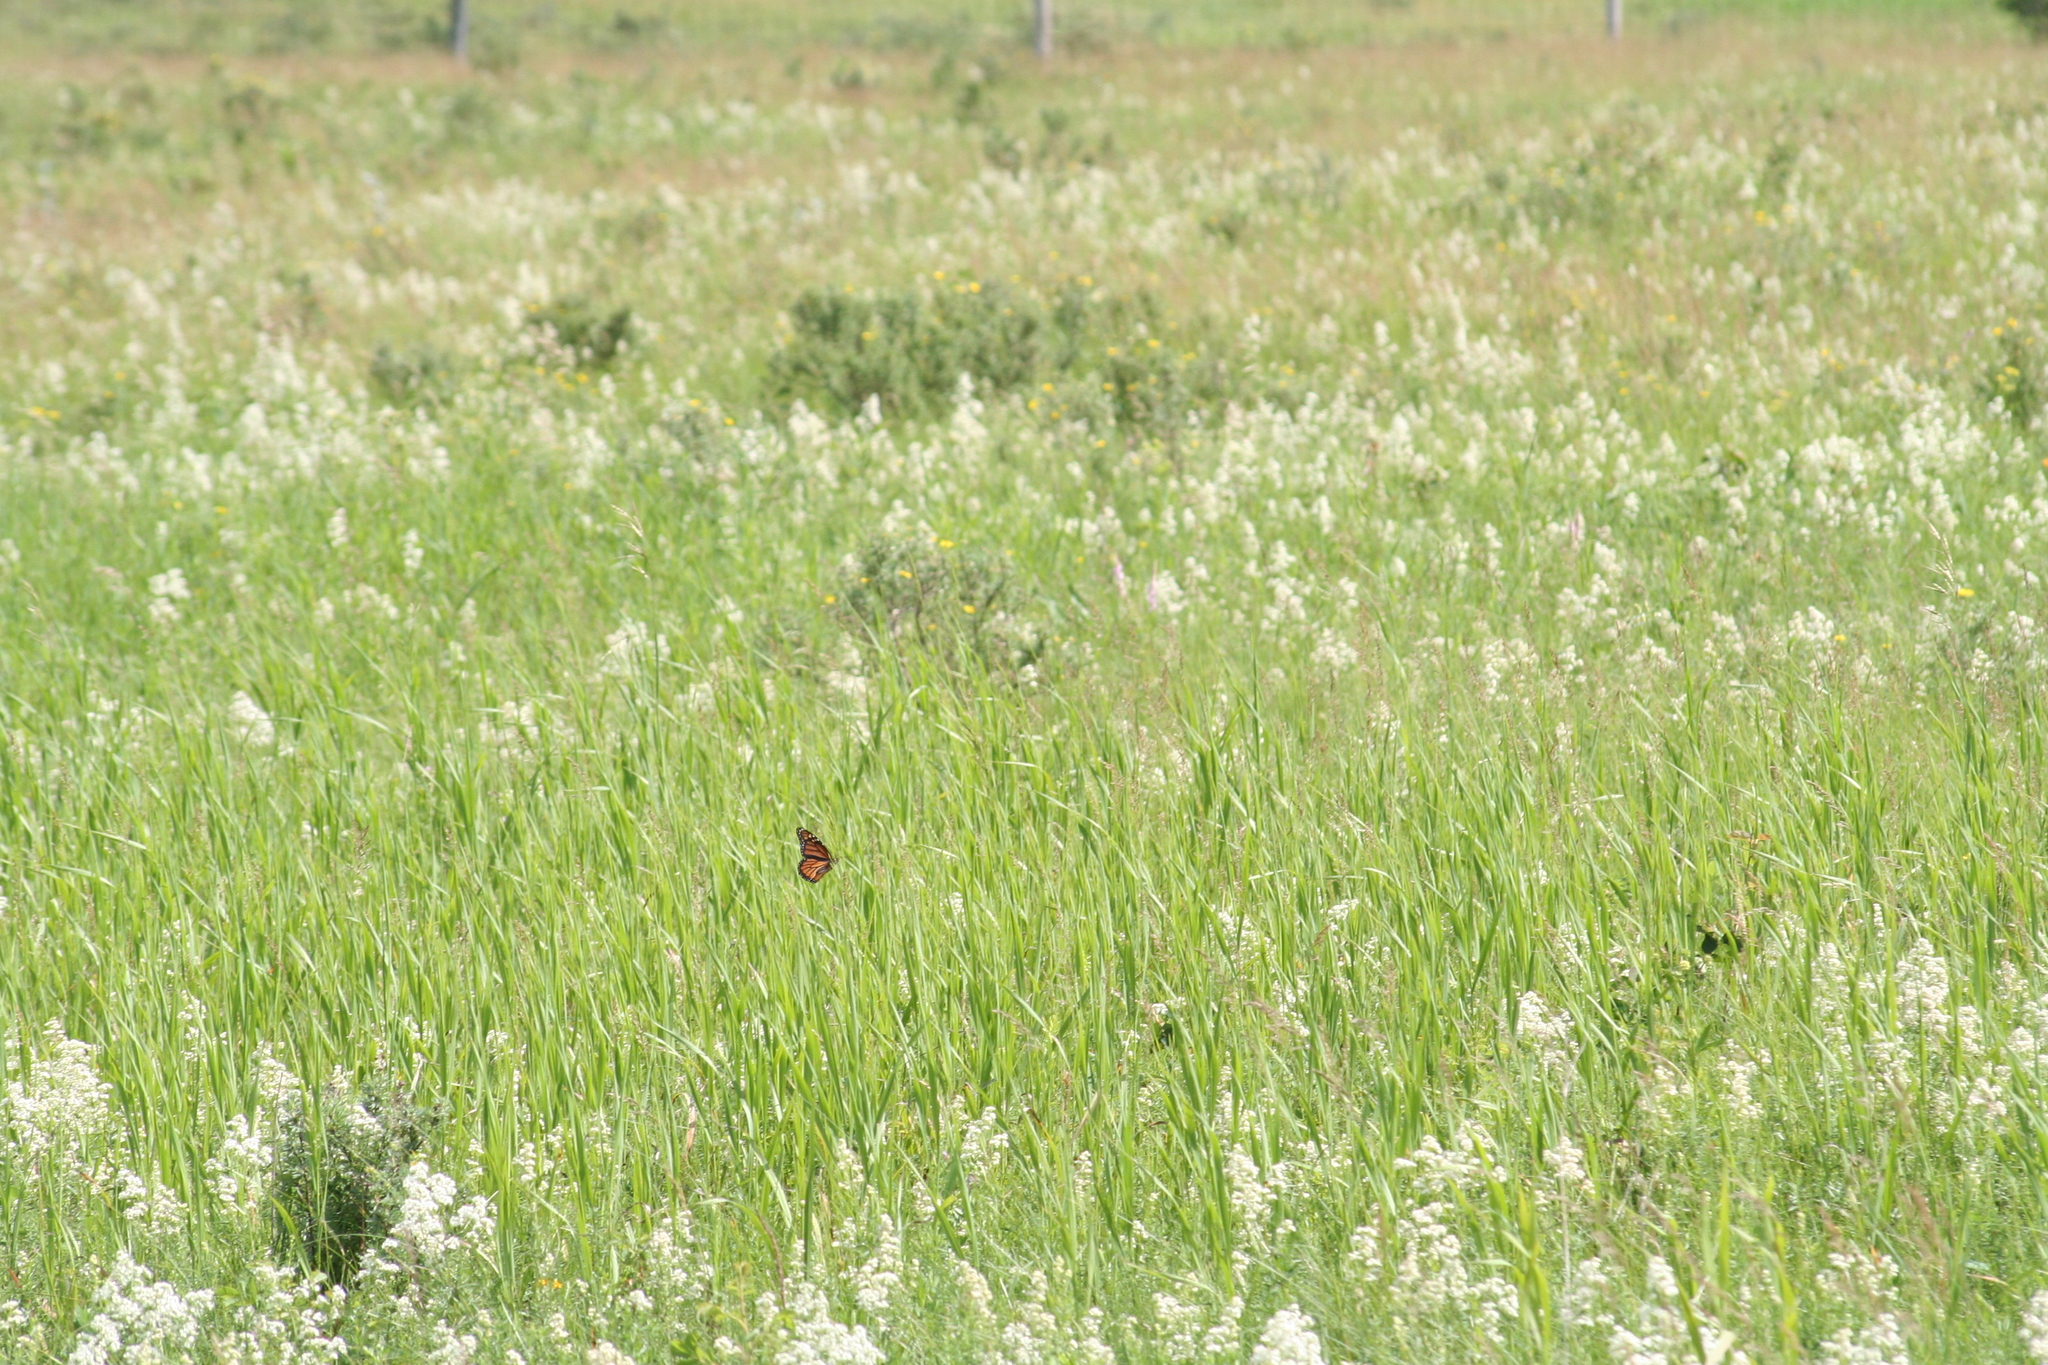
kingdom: Animalia
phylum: Arthropoda
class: Insecta
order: Lepidoptera
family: Nymphalidae
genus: Danaus
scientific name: Danaus plexippus
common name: Monarch
